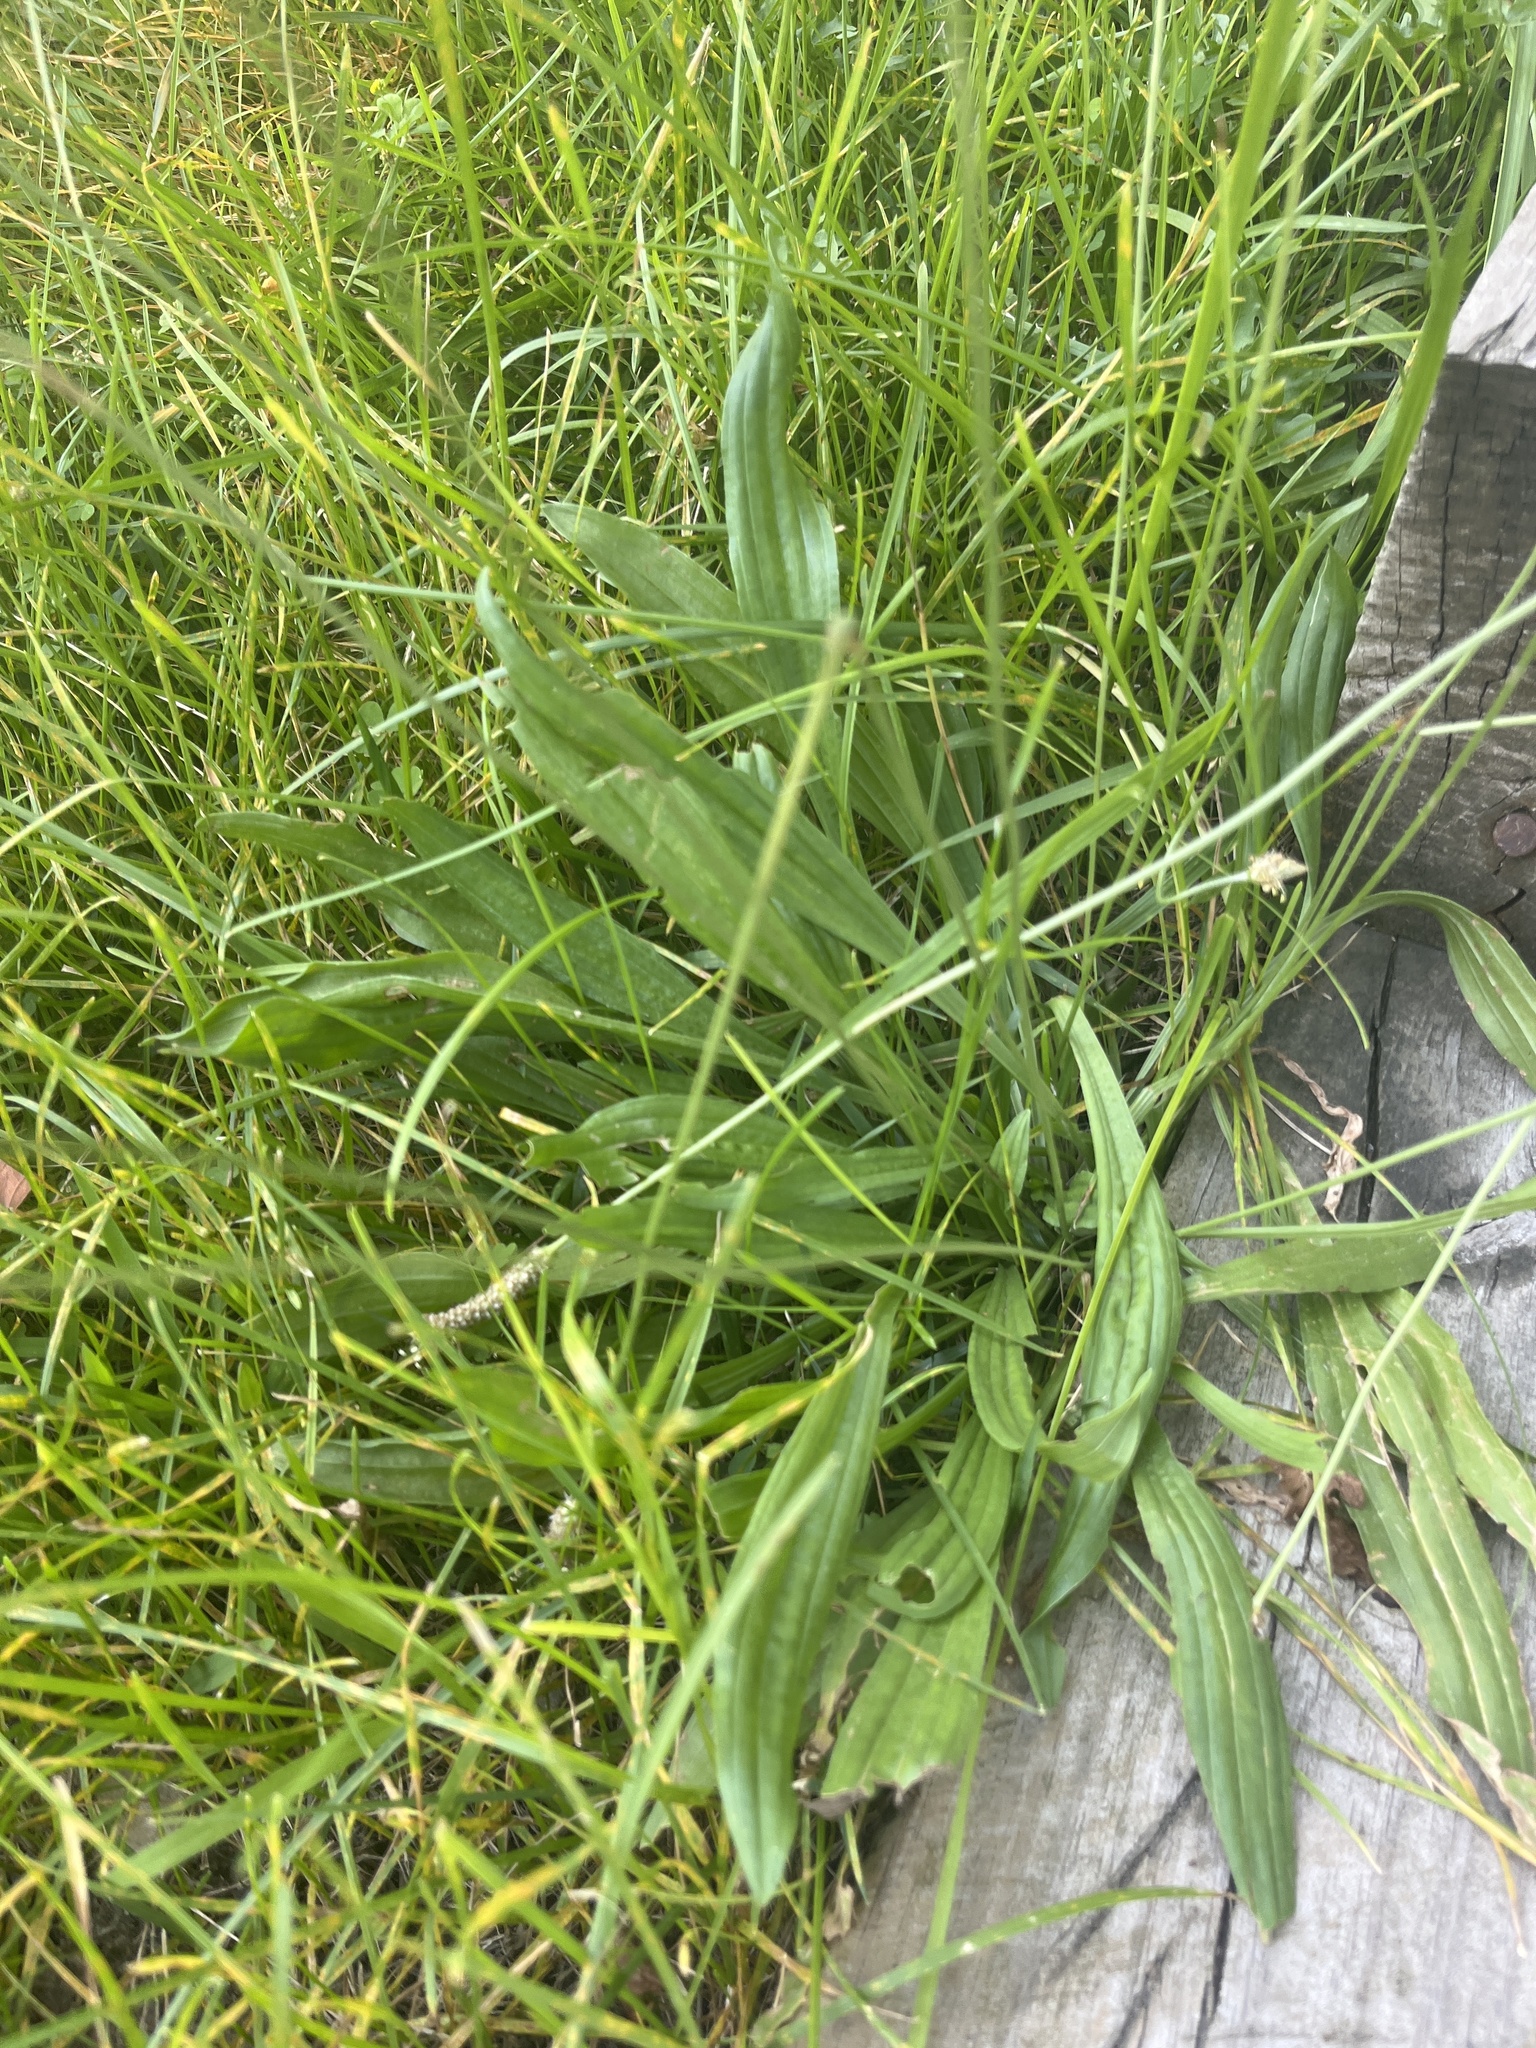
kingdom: Plantae
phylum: Tracheophyta
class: Magnoliopsida
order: Lamiales
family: Plantaginaceae
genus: Plantago
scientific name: Plantago lanceolata
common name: Ribwort plantain
